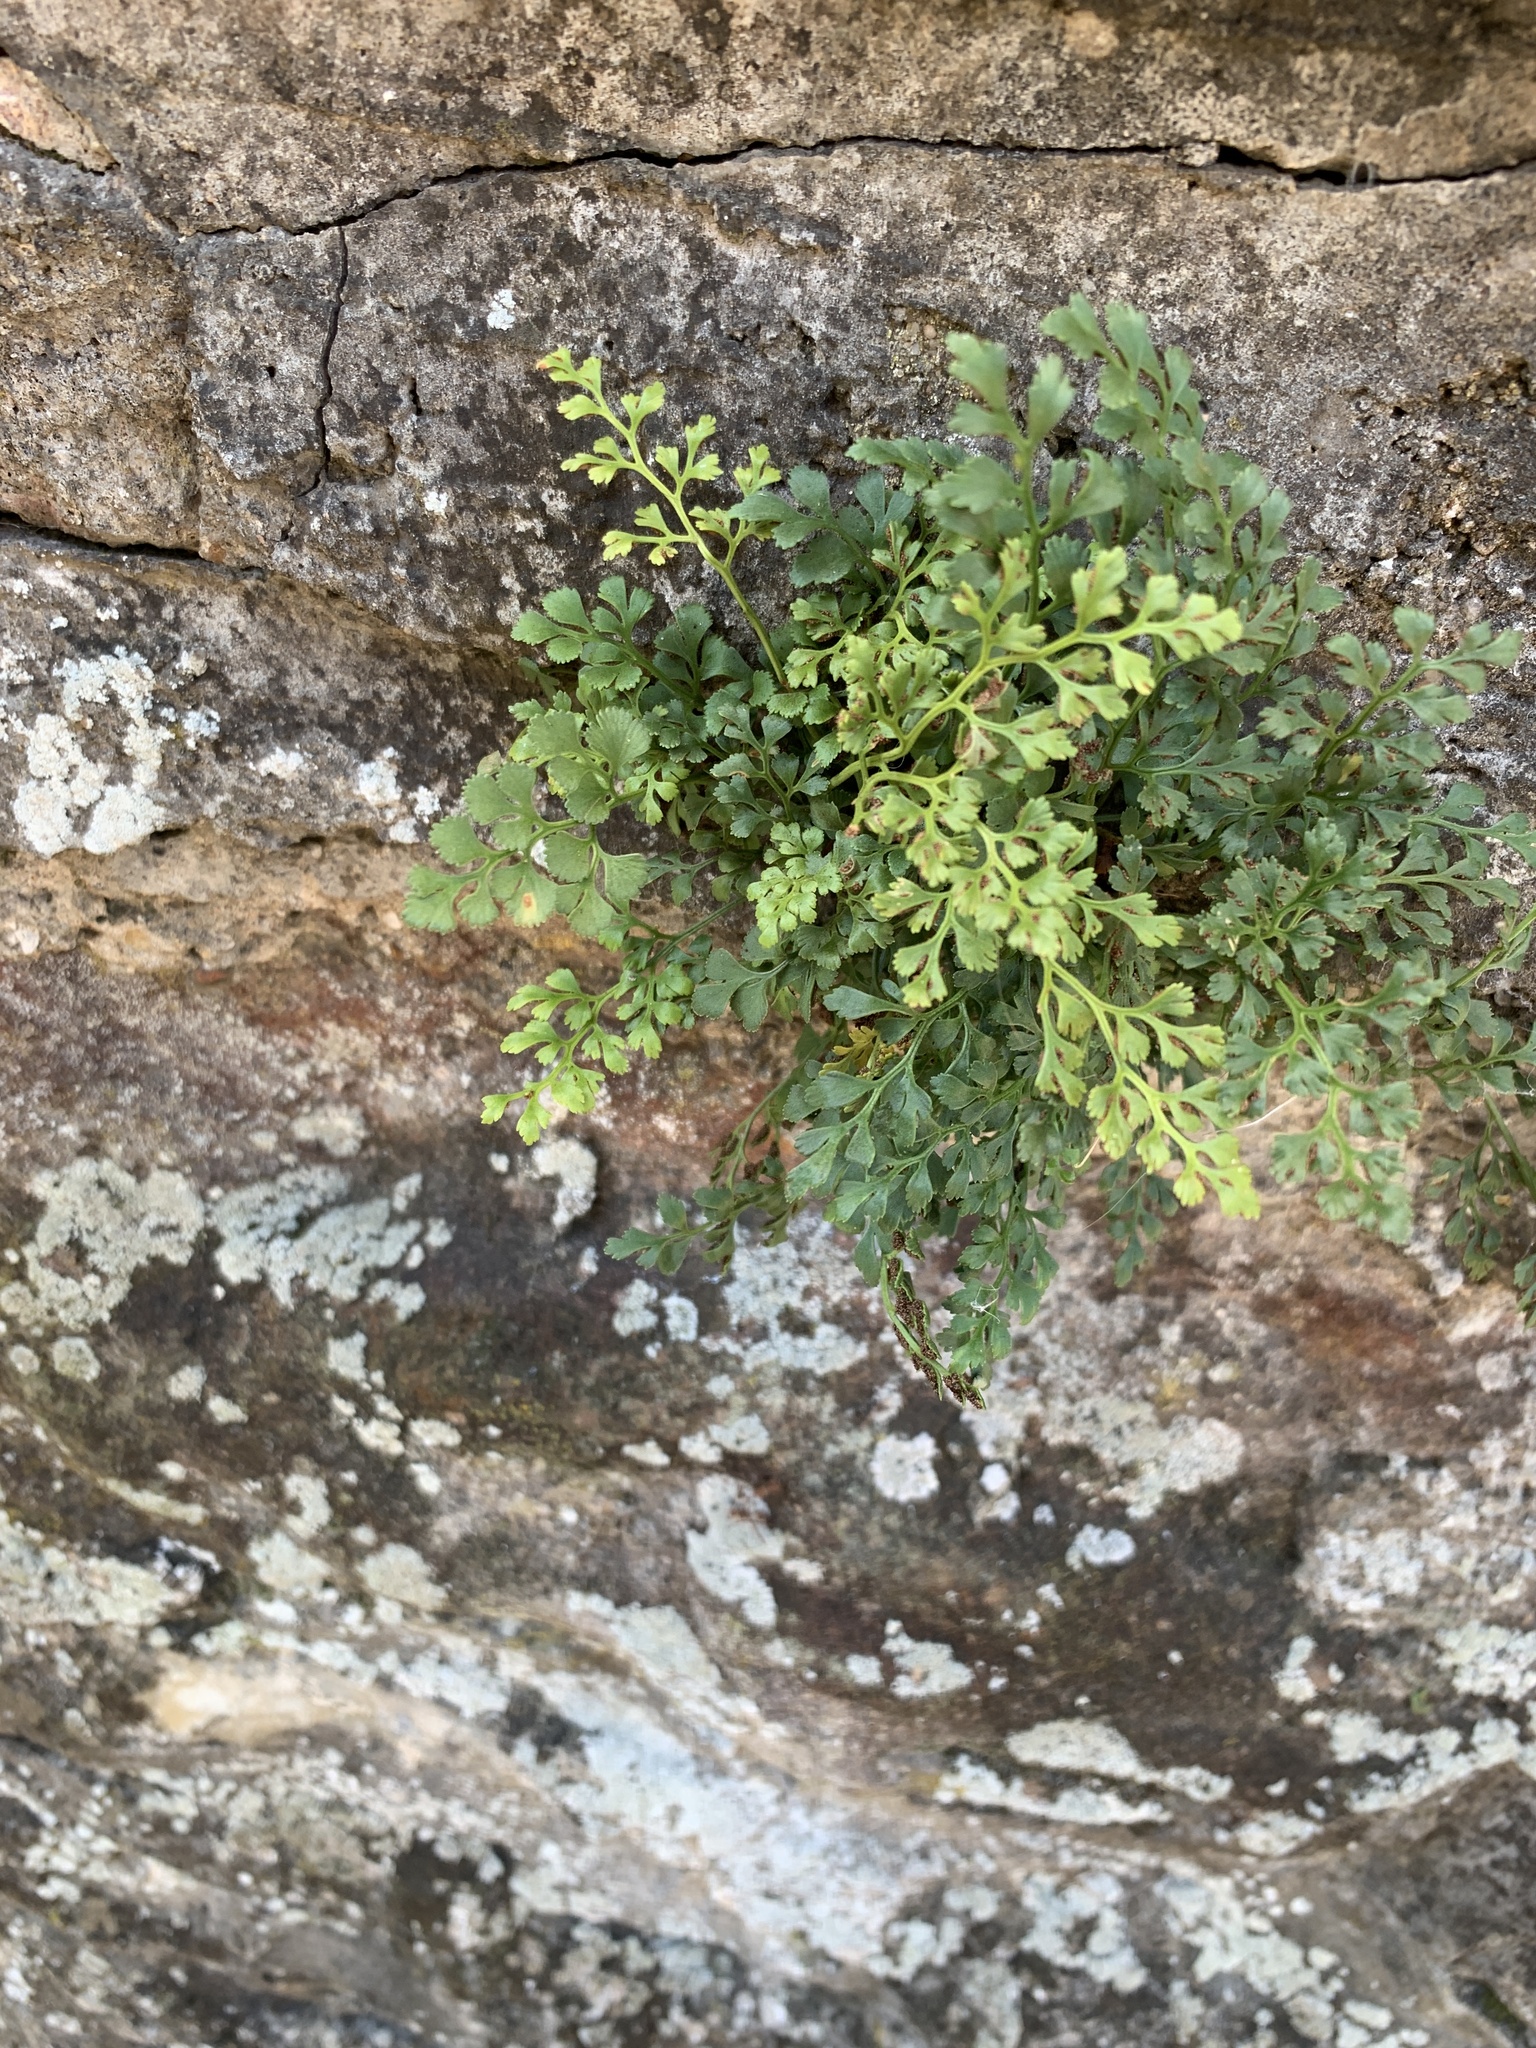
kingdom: Plantae
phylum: Tracheophyta
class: Polypodiopsida
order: Polypodiales
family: Aspleniaceae
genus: Asplenium
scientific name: Asplenium ruta-muraria
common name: Wall-rue
